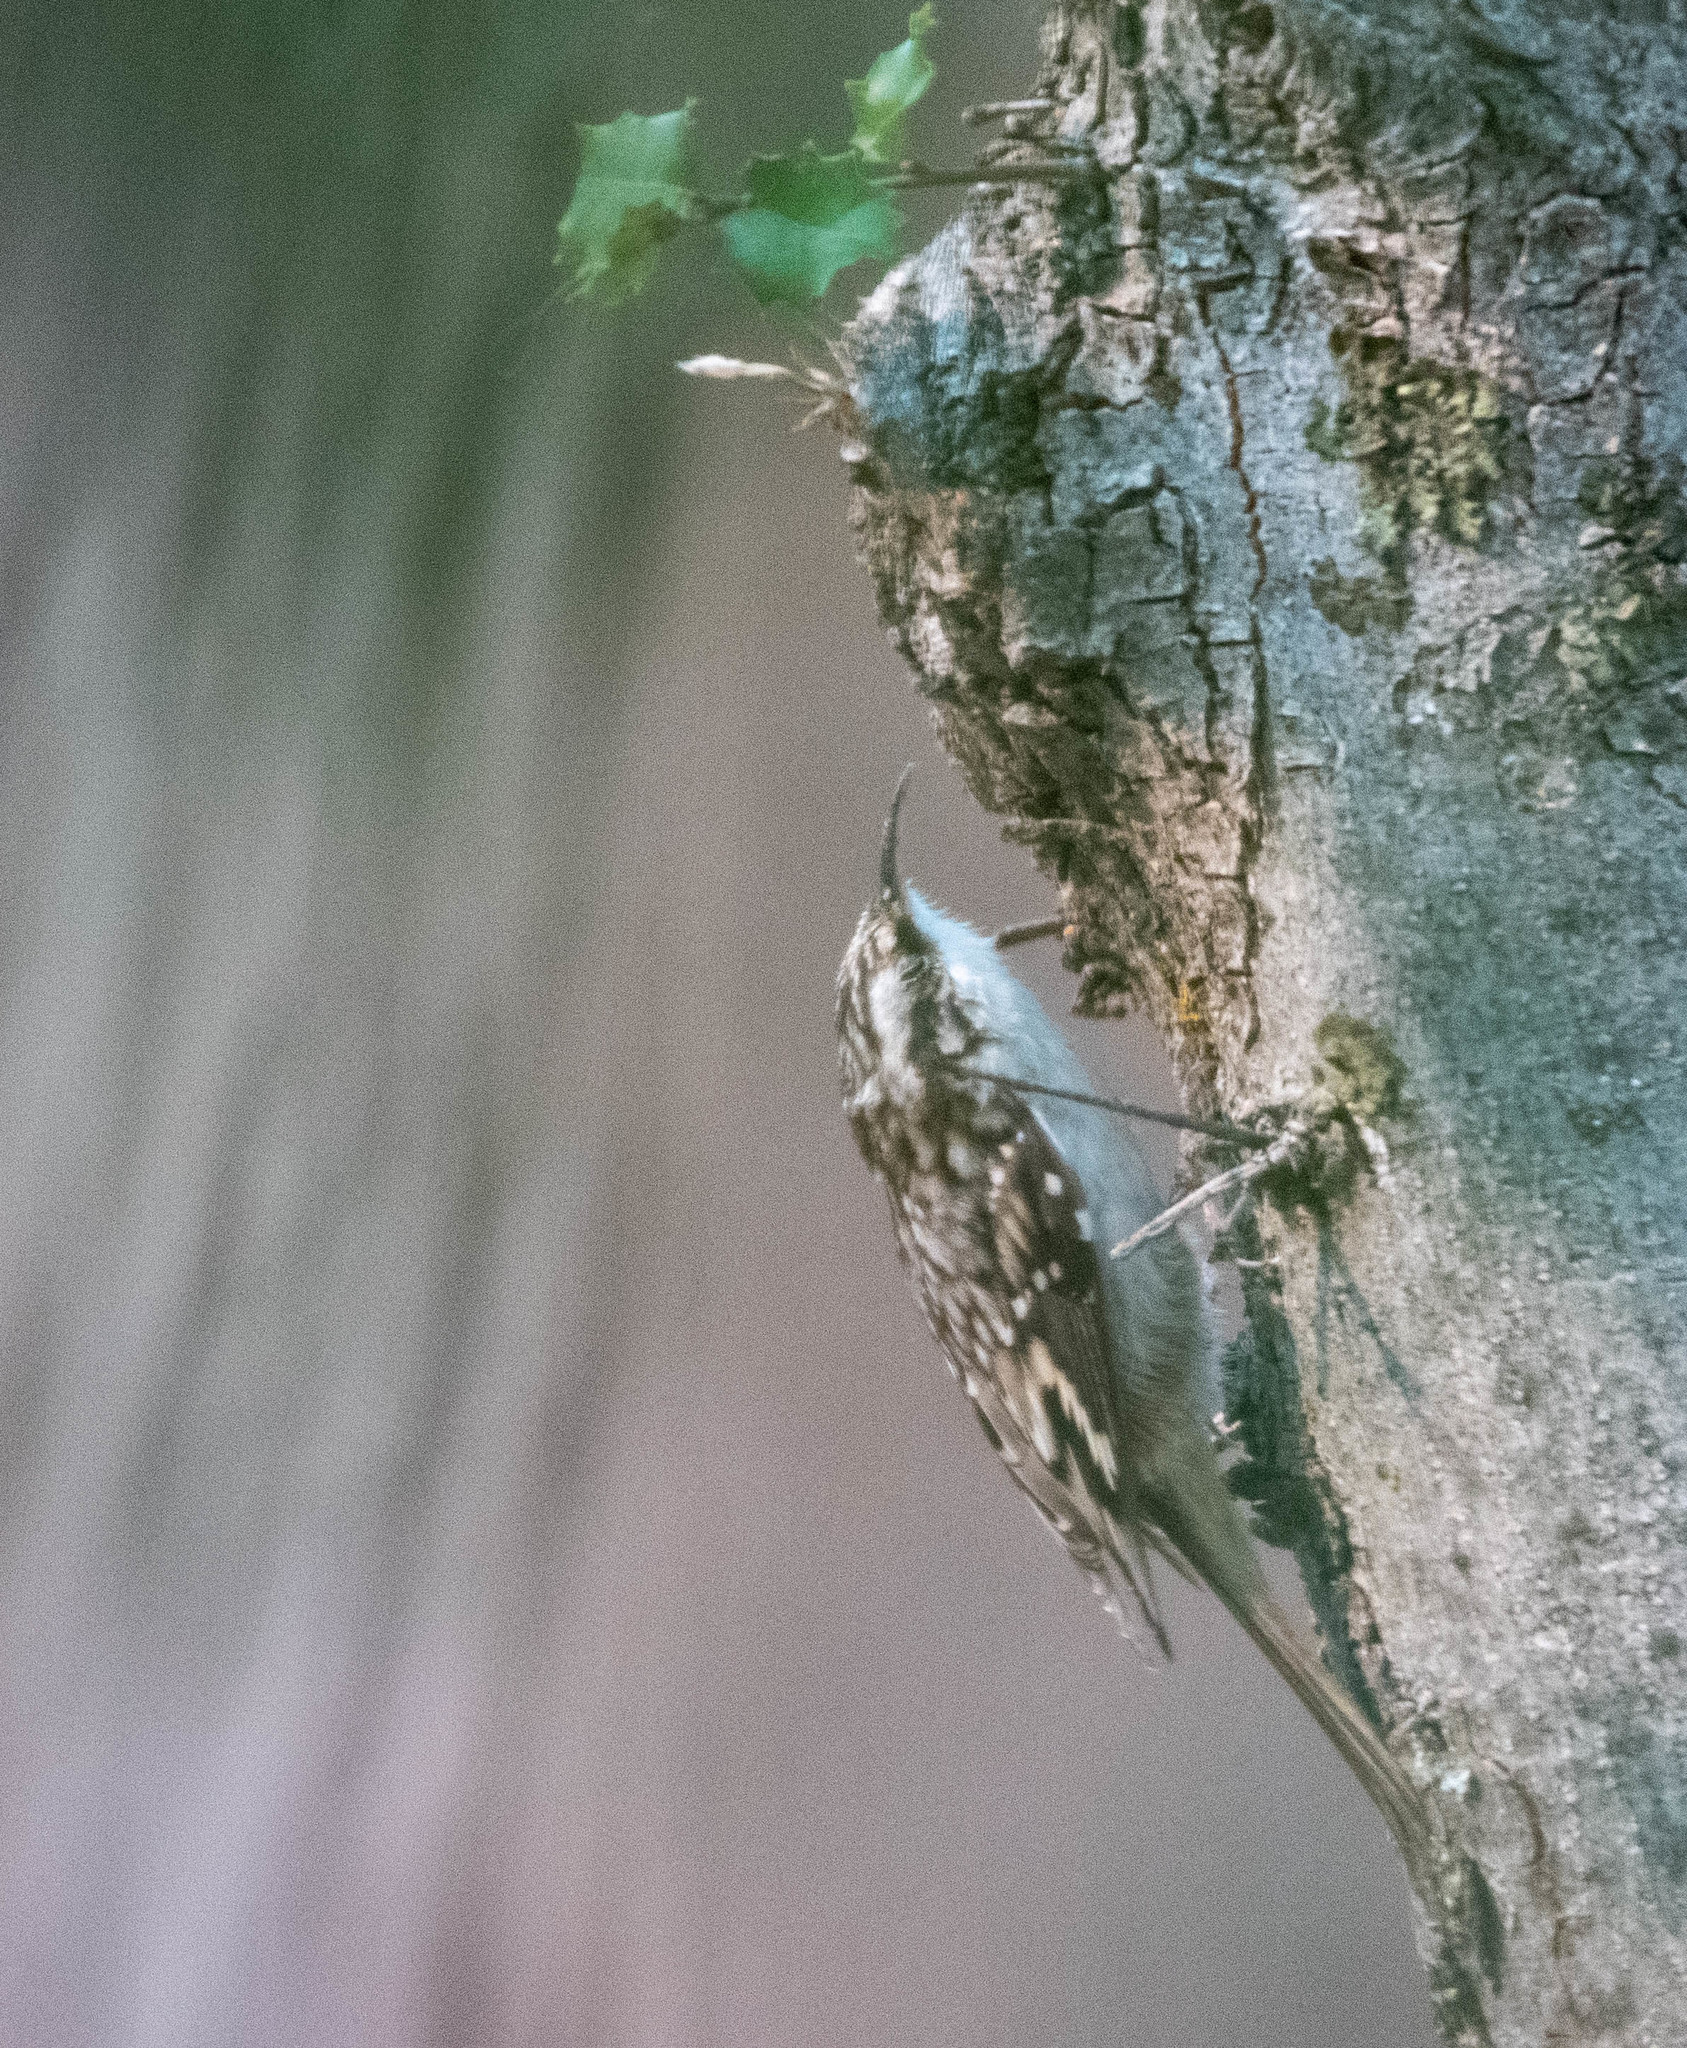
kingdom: Animalia
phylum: Chordata
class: Aves
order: Passeriformes
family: Certhiidae
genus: Certhia
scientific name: Certhia americana
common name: Brown creeper
